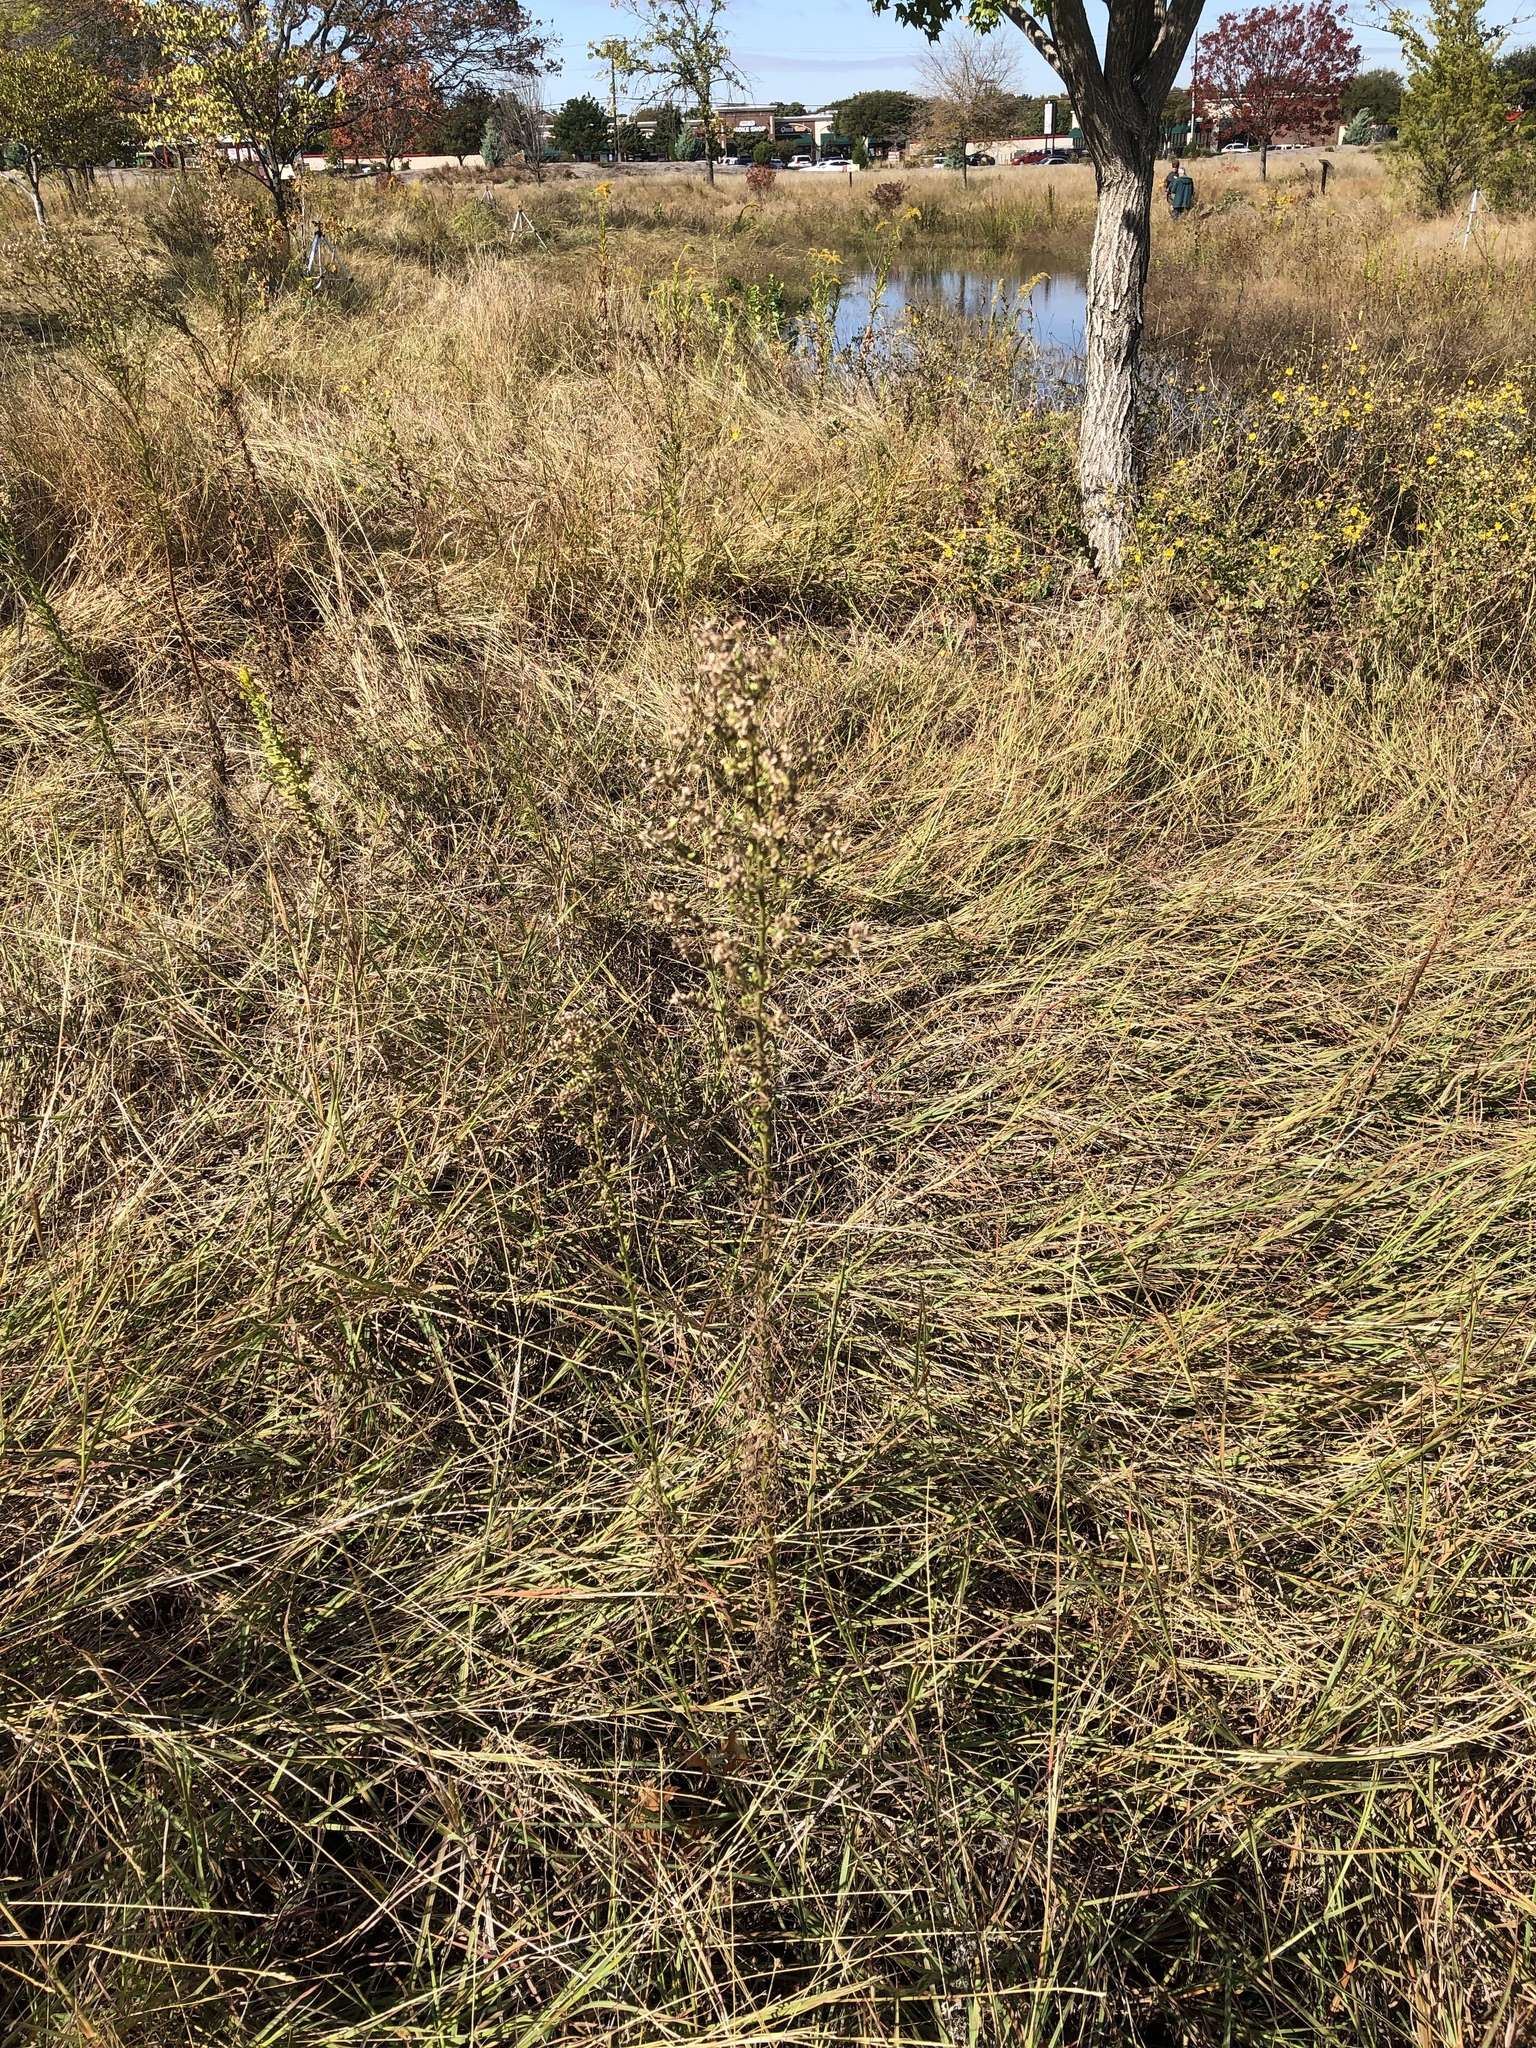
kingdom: Plantae
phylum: Tracheophyta
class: Magnoliopsida
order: Asterales
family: Asteraceae
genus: Erigeron
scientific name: Erigeron canadensis
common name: Canadian fleabane
